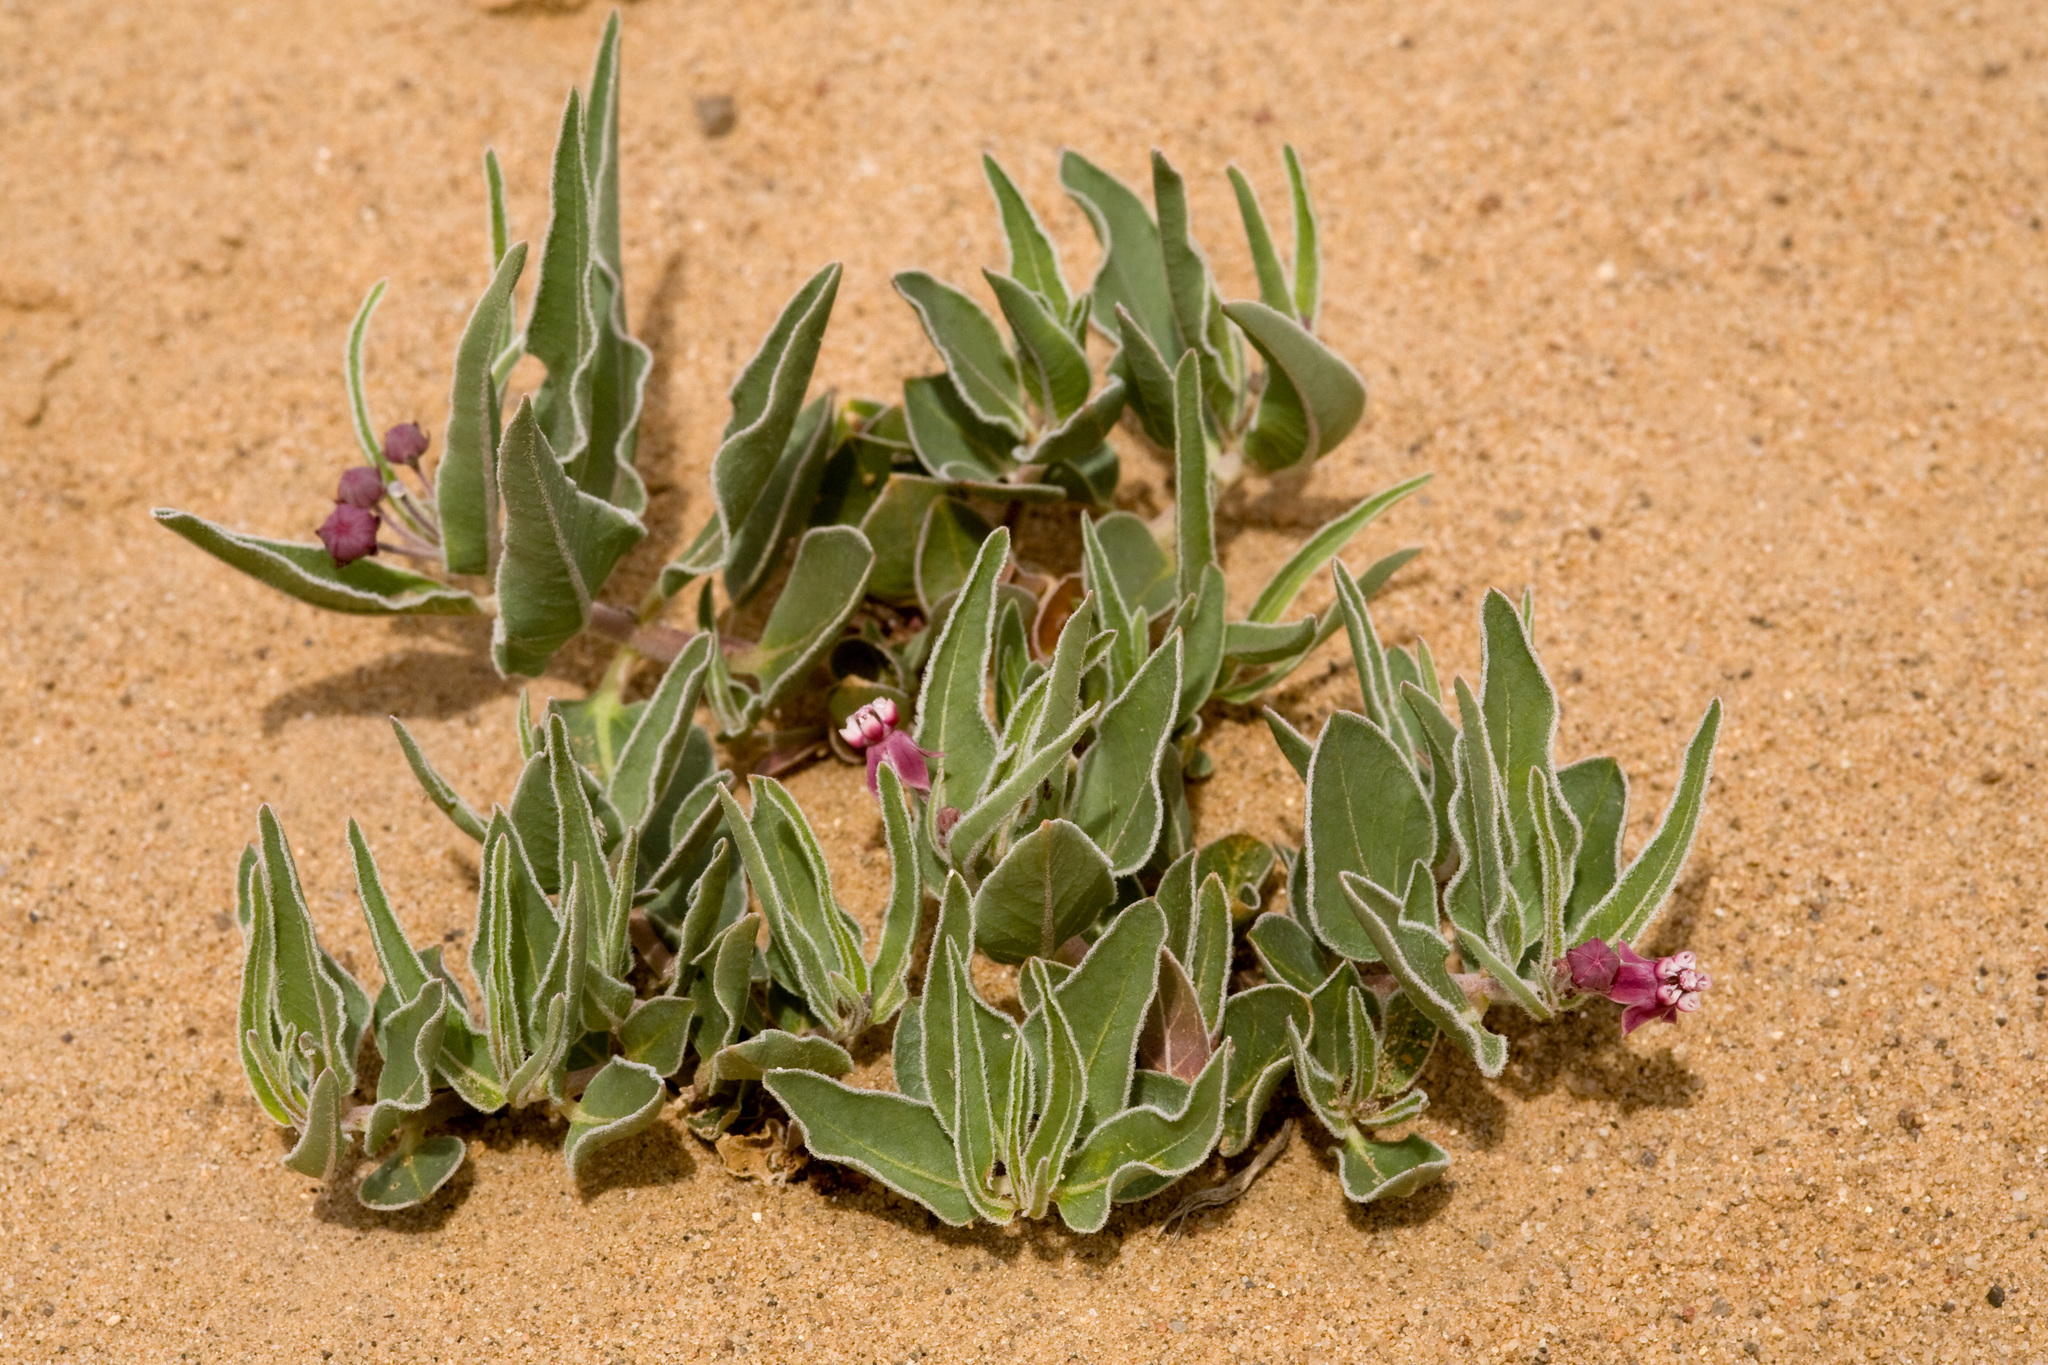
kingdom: Plantae
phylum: Tracheophyta
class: Magnoliopsida
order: Gentianales
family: Apocynaceae
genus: Asclepias
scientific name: Asclepias ruthiae
